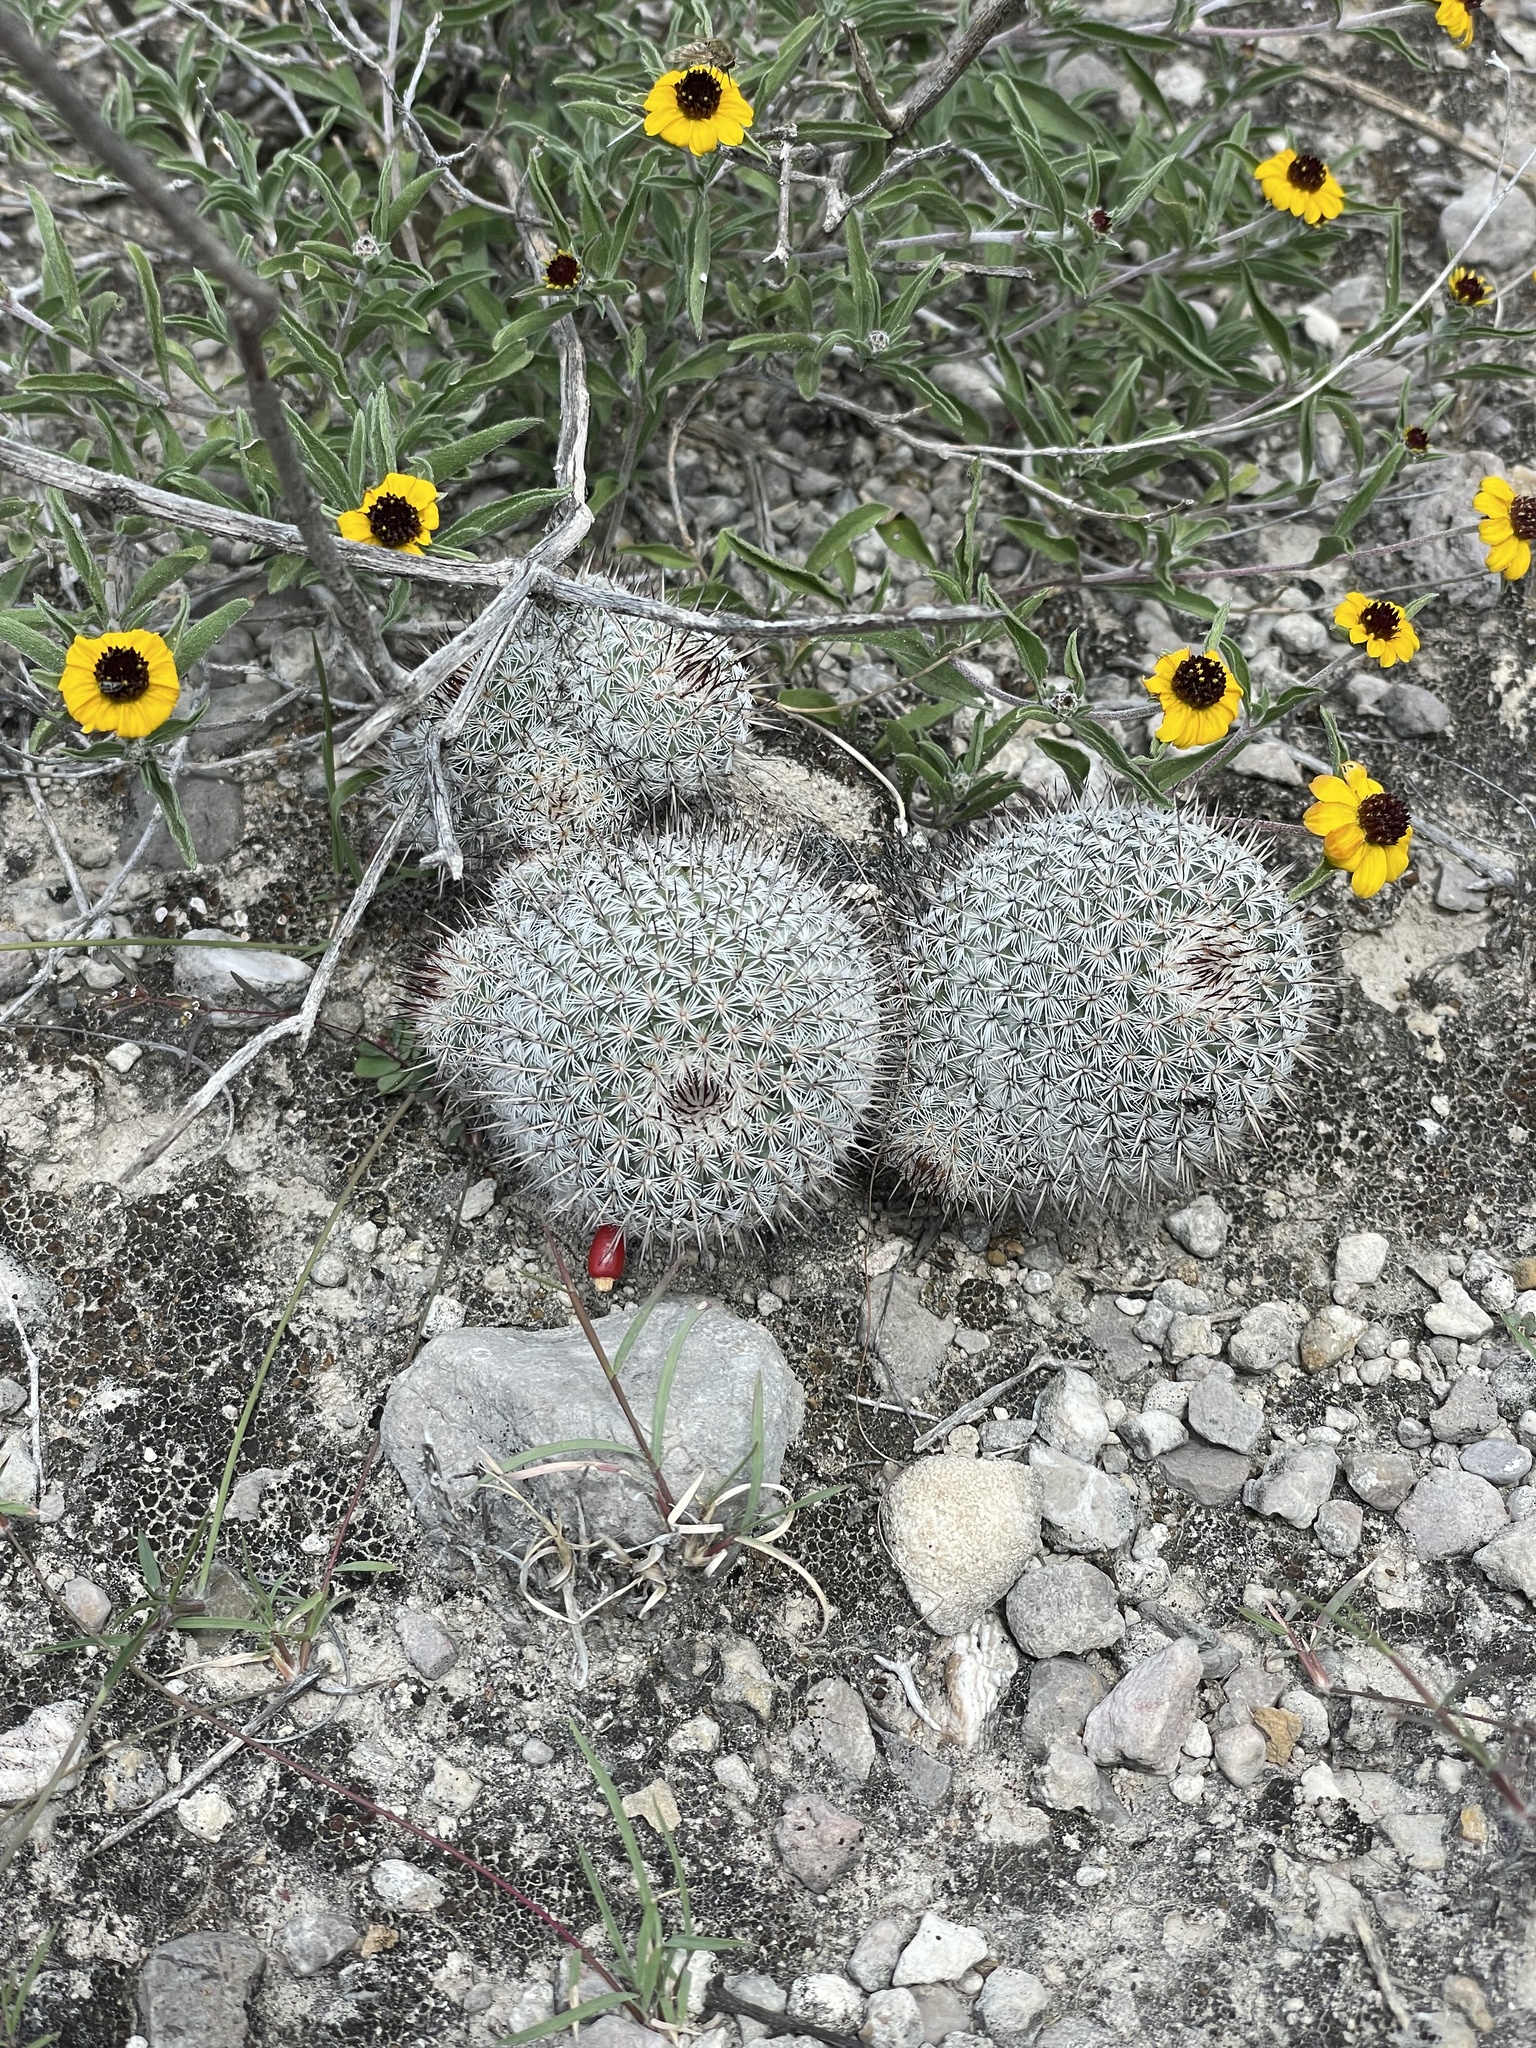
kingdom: Plantae
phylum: Tracheophyta
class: Magnoliopsida
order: Caryophyllales
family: Cactaceae
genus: Mammillaria
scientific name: Mammillaria haageana
